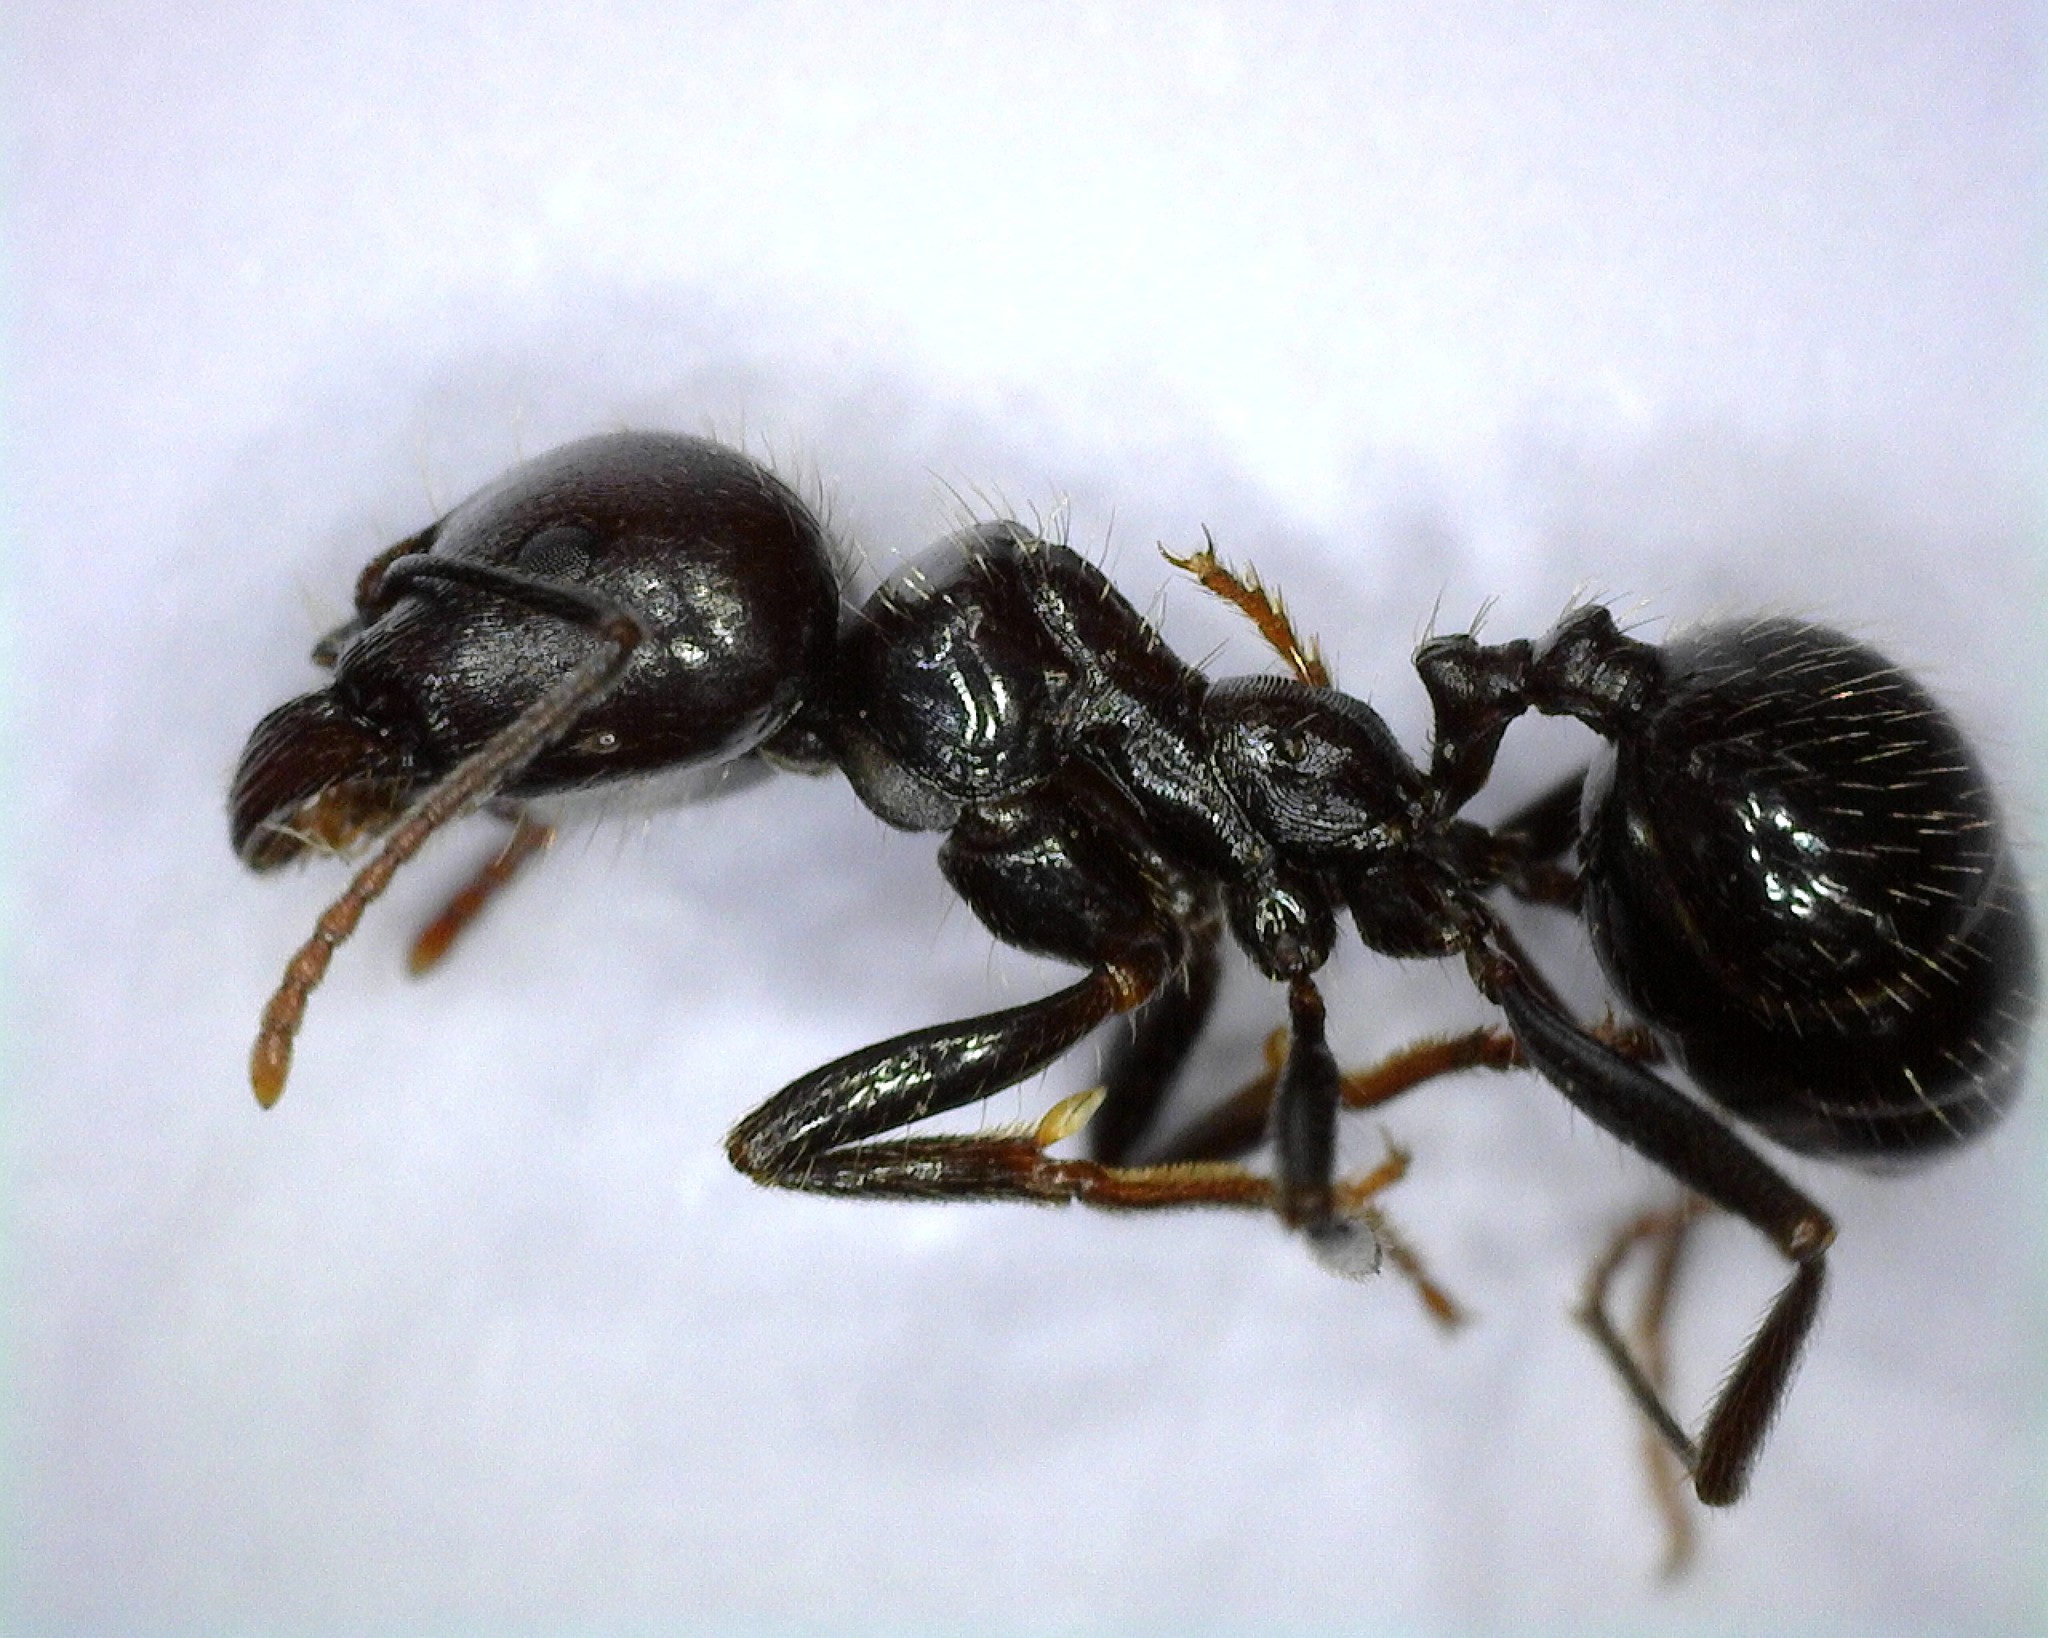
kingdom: Animalia
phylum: Arthropoda
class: Insecta
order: Hymenoptera
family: Formicidae
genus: Messor
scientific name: Messor barbarus
